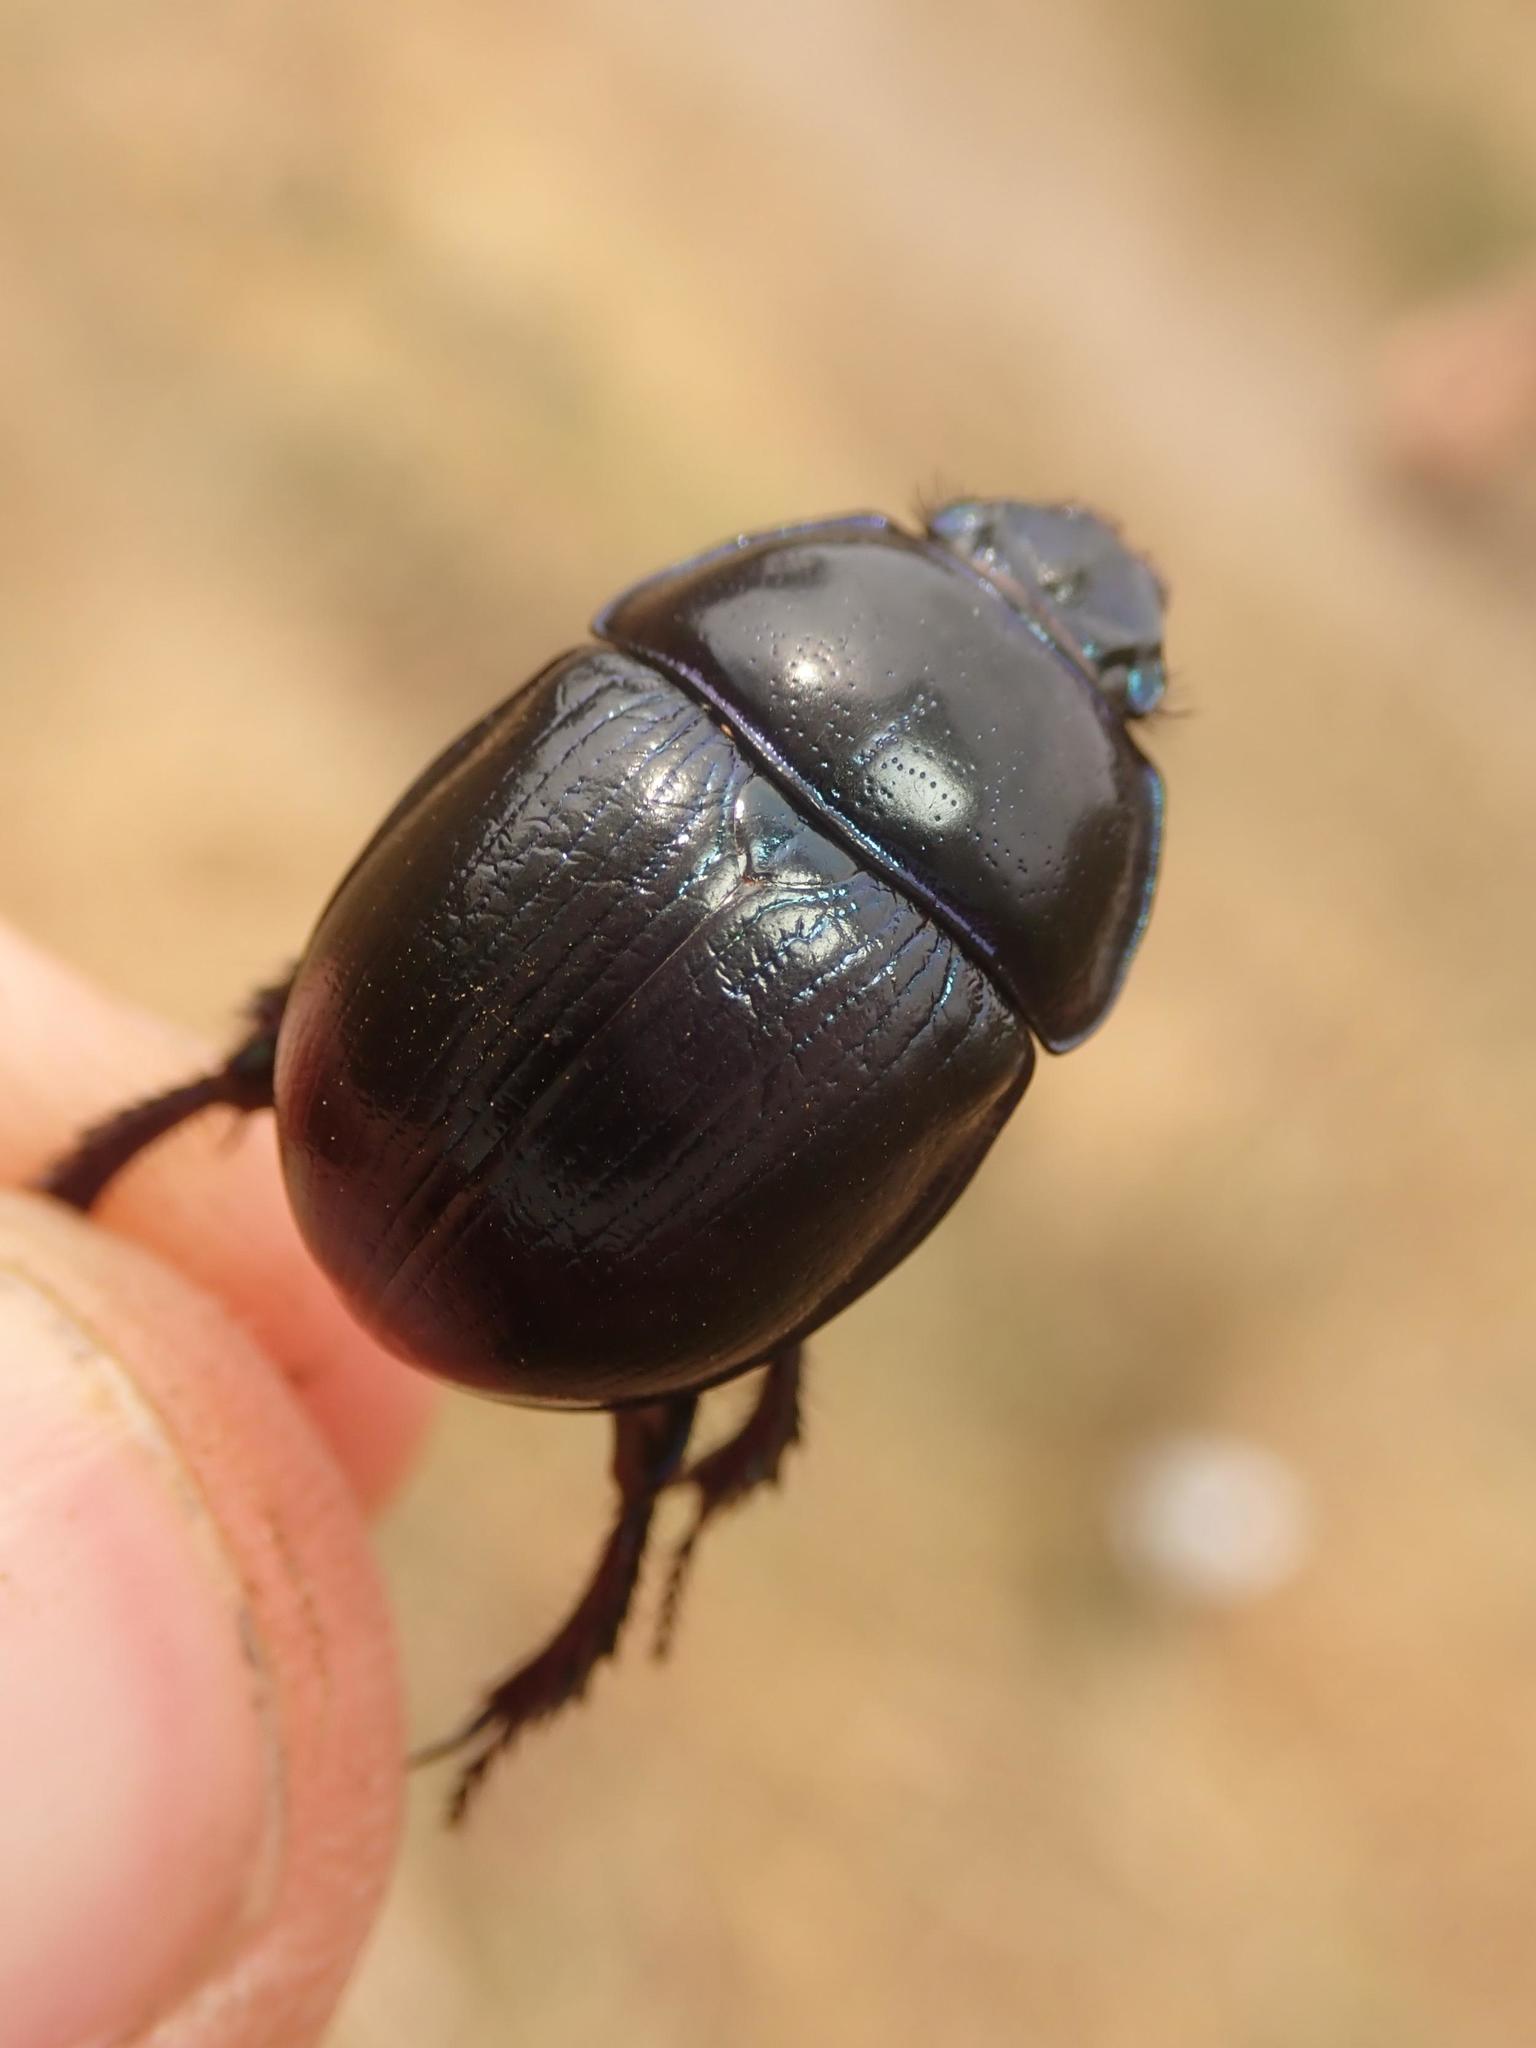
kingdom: Animalia
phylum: Arthropoda
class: Insecta
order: Coleoptera
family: Geotrupidae
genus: Anoplotrupes
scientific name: Anoplotrupes stercorosus
